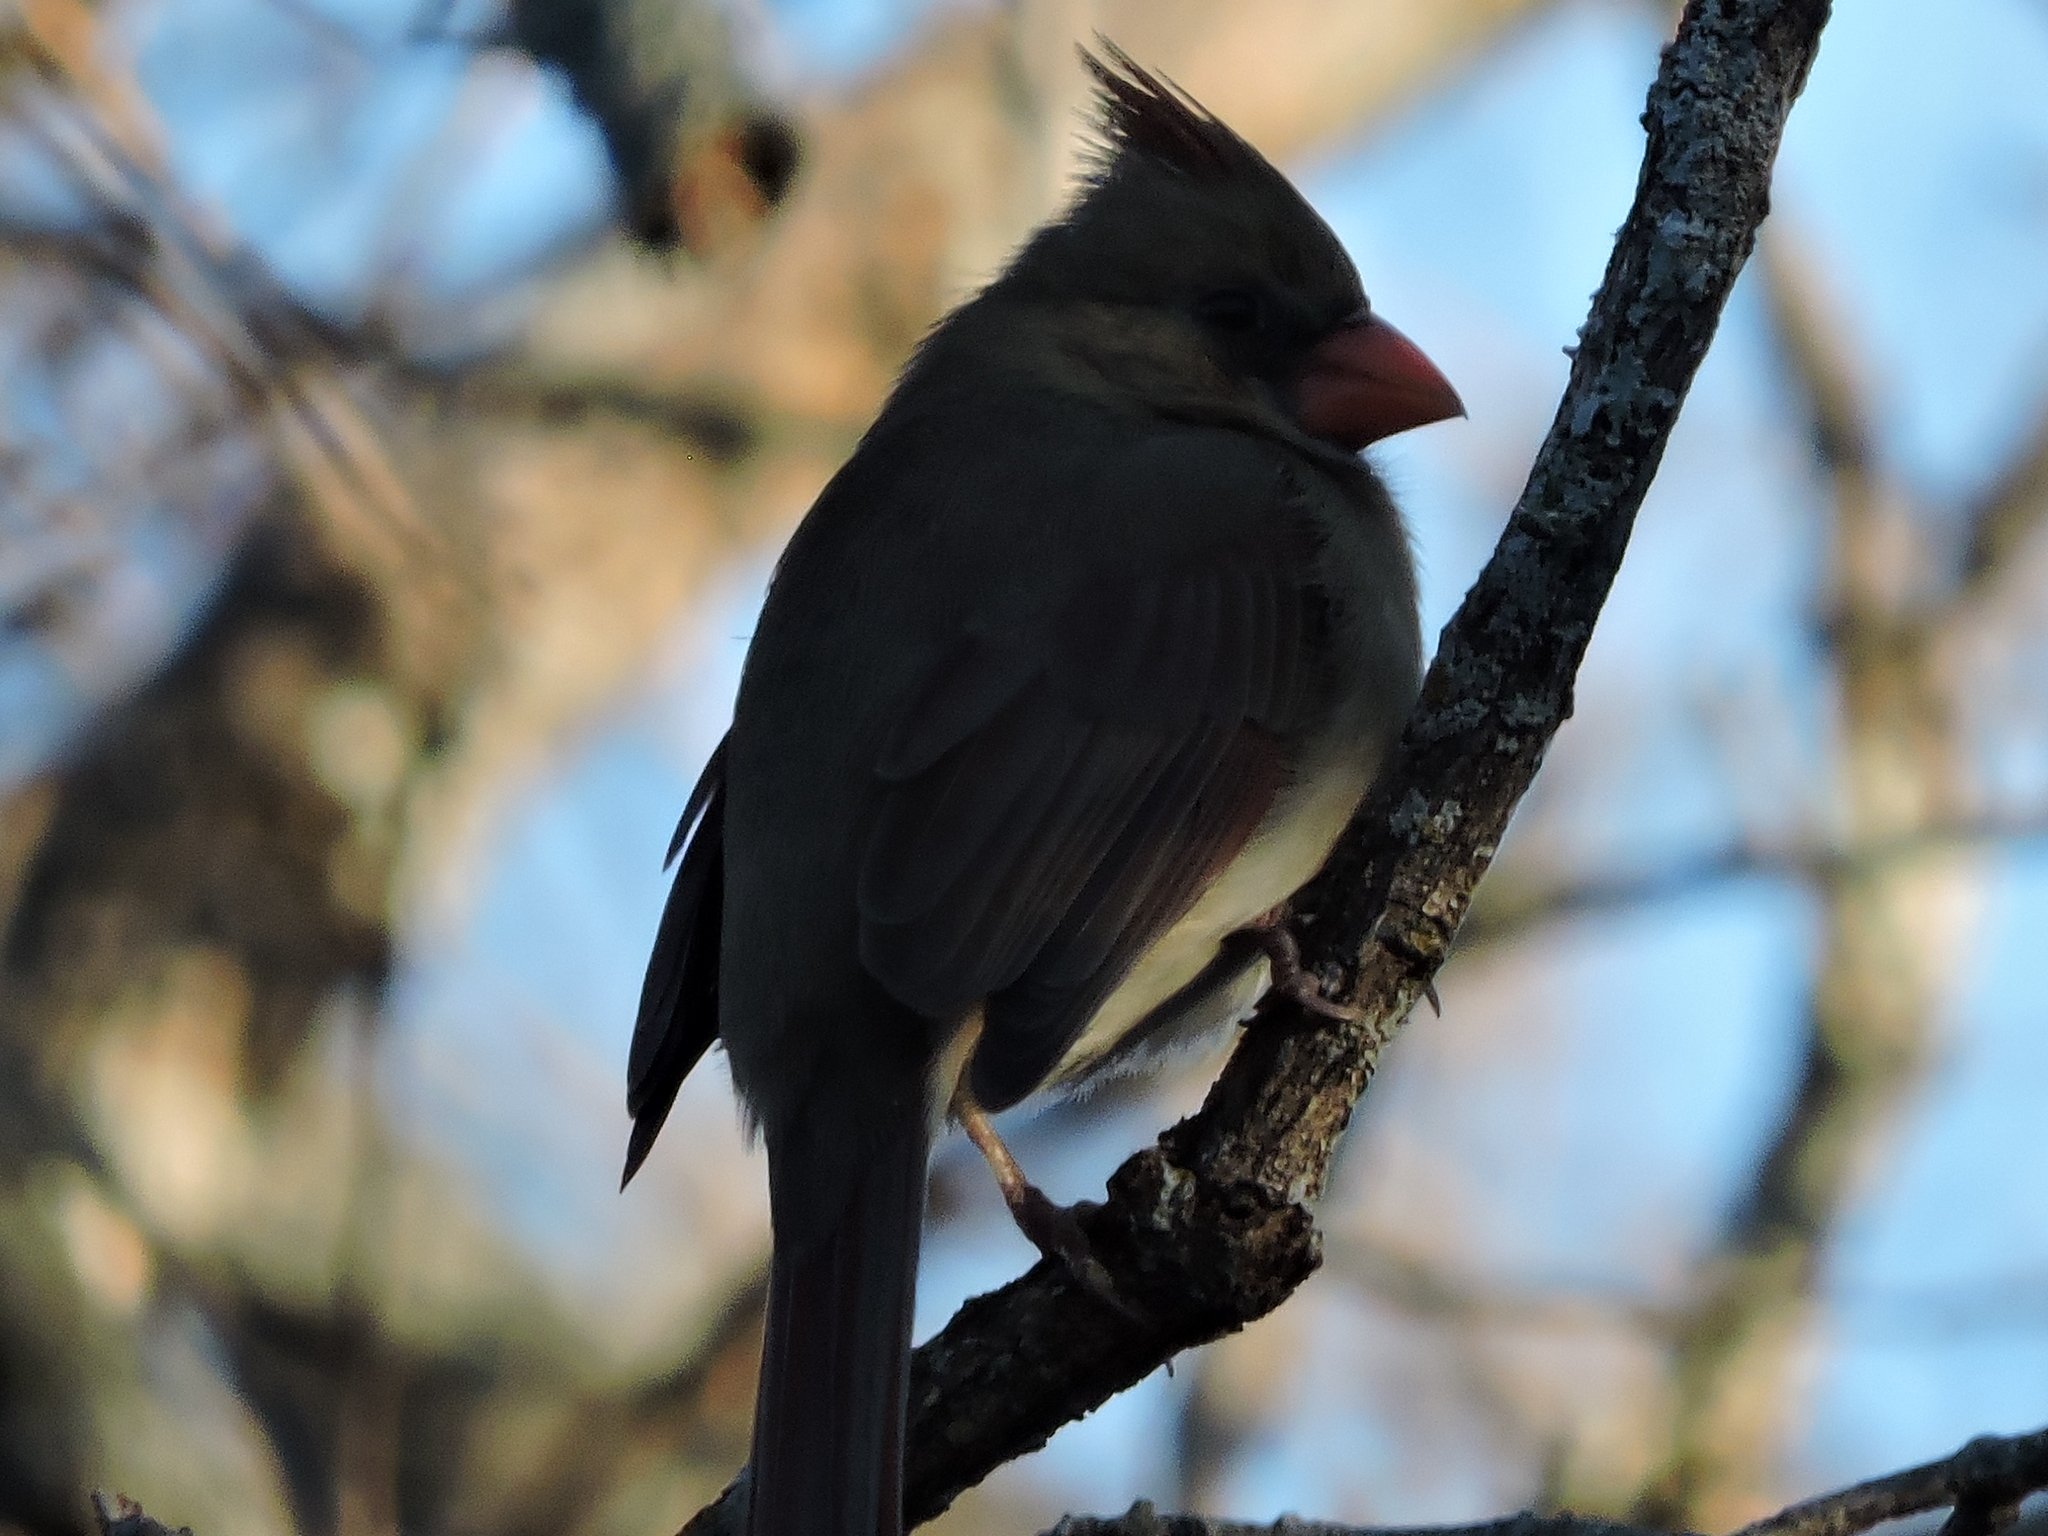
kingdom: Animalia
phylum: Chordata
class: Aves
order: Passeriformes
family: Cardinalidae
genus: Cardinalis
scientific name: Cardinalis cardinalis
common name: Northern cardinal
